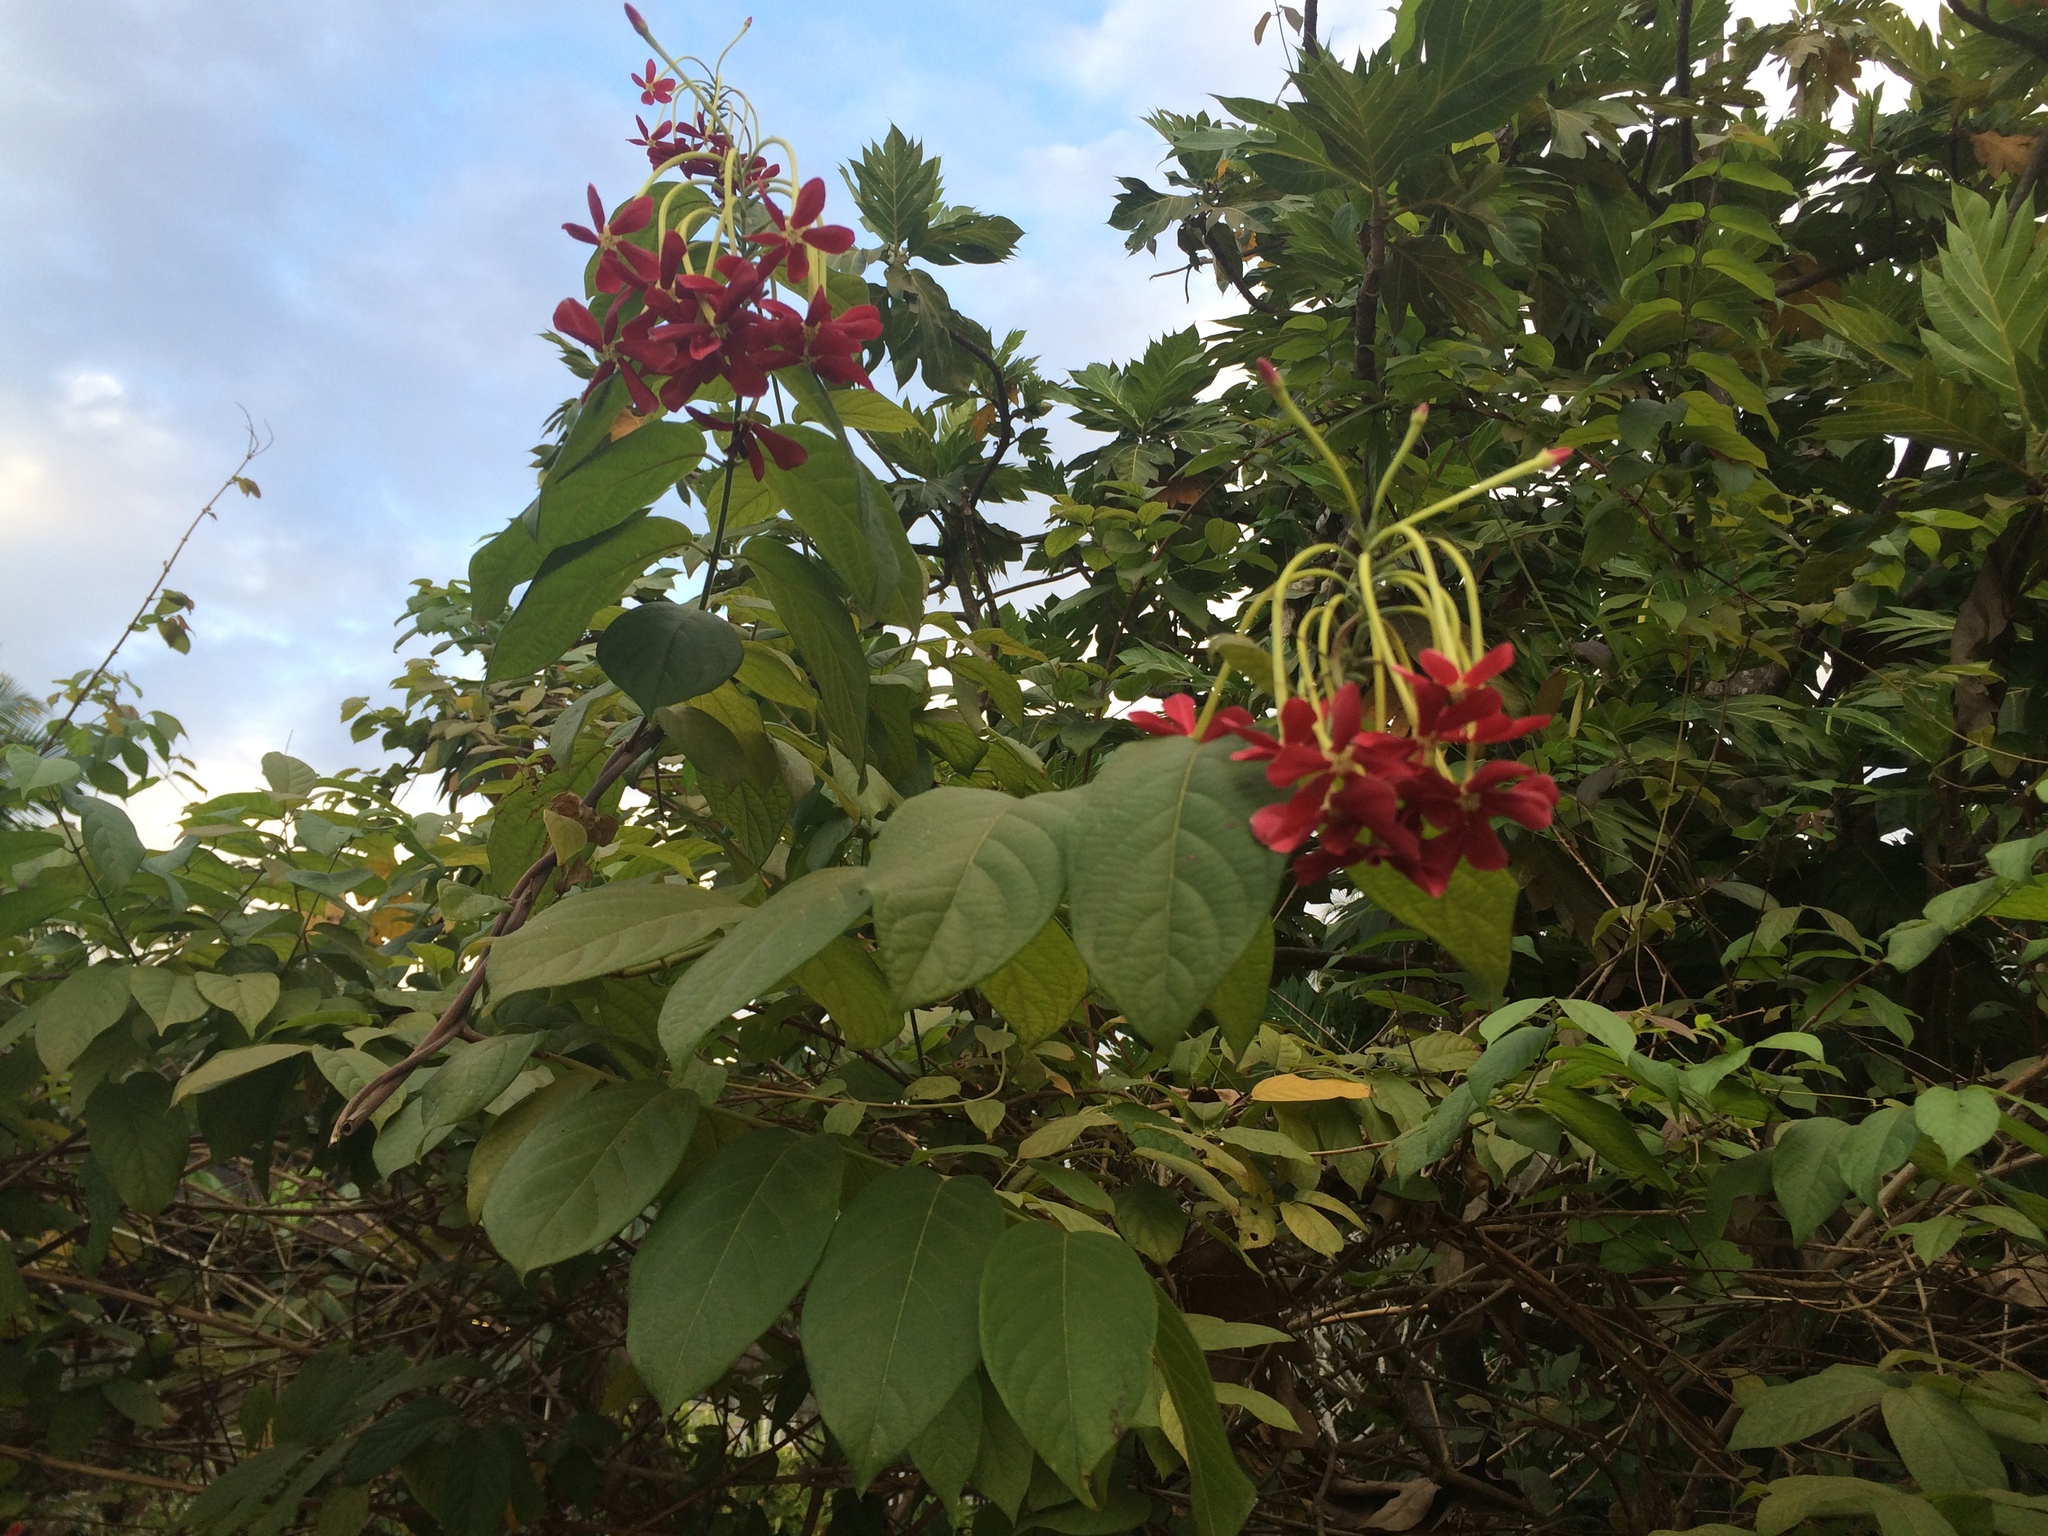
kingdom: Plantae
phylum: Tracheophyta
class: Magnoliopsida
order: Myrtales
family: Combretaceae
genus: Combretum
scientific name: Combretum indicum
